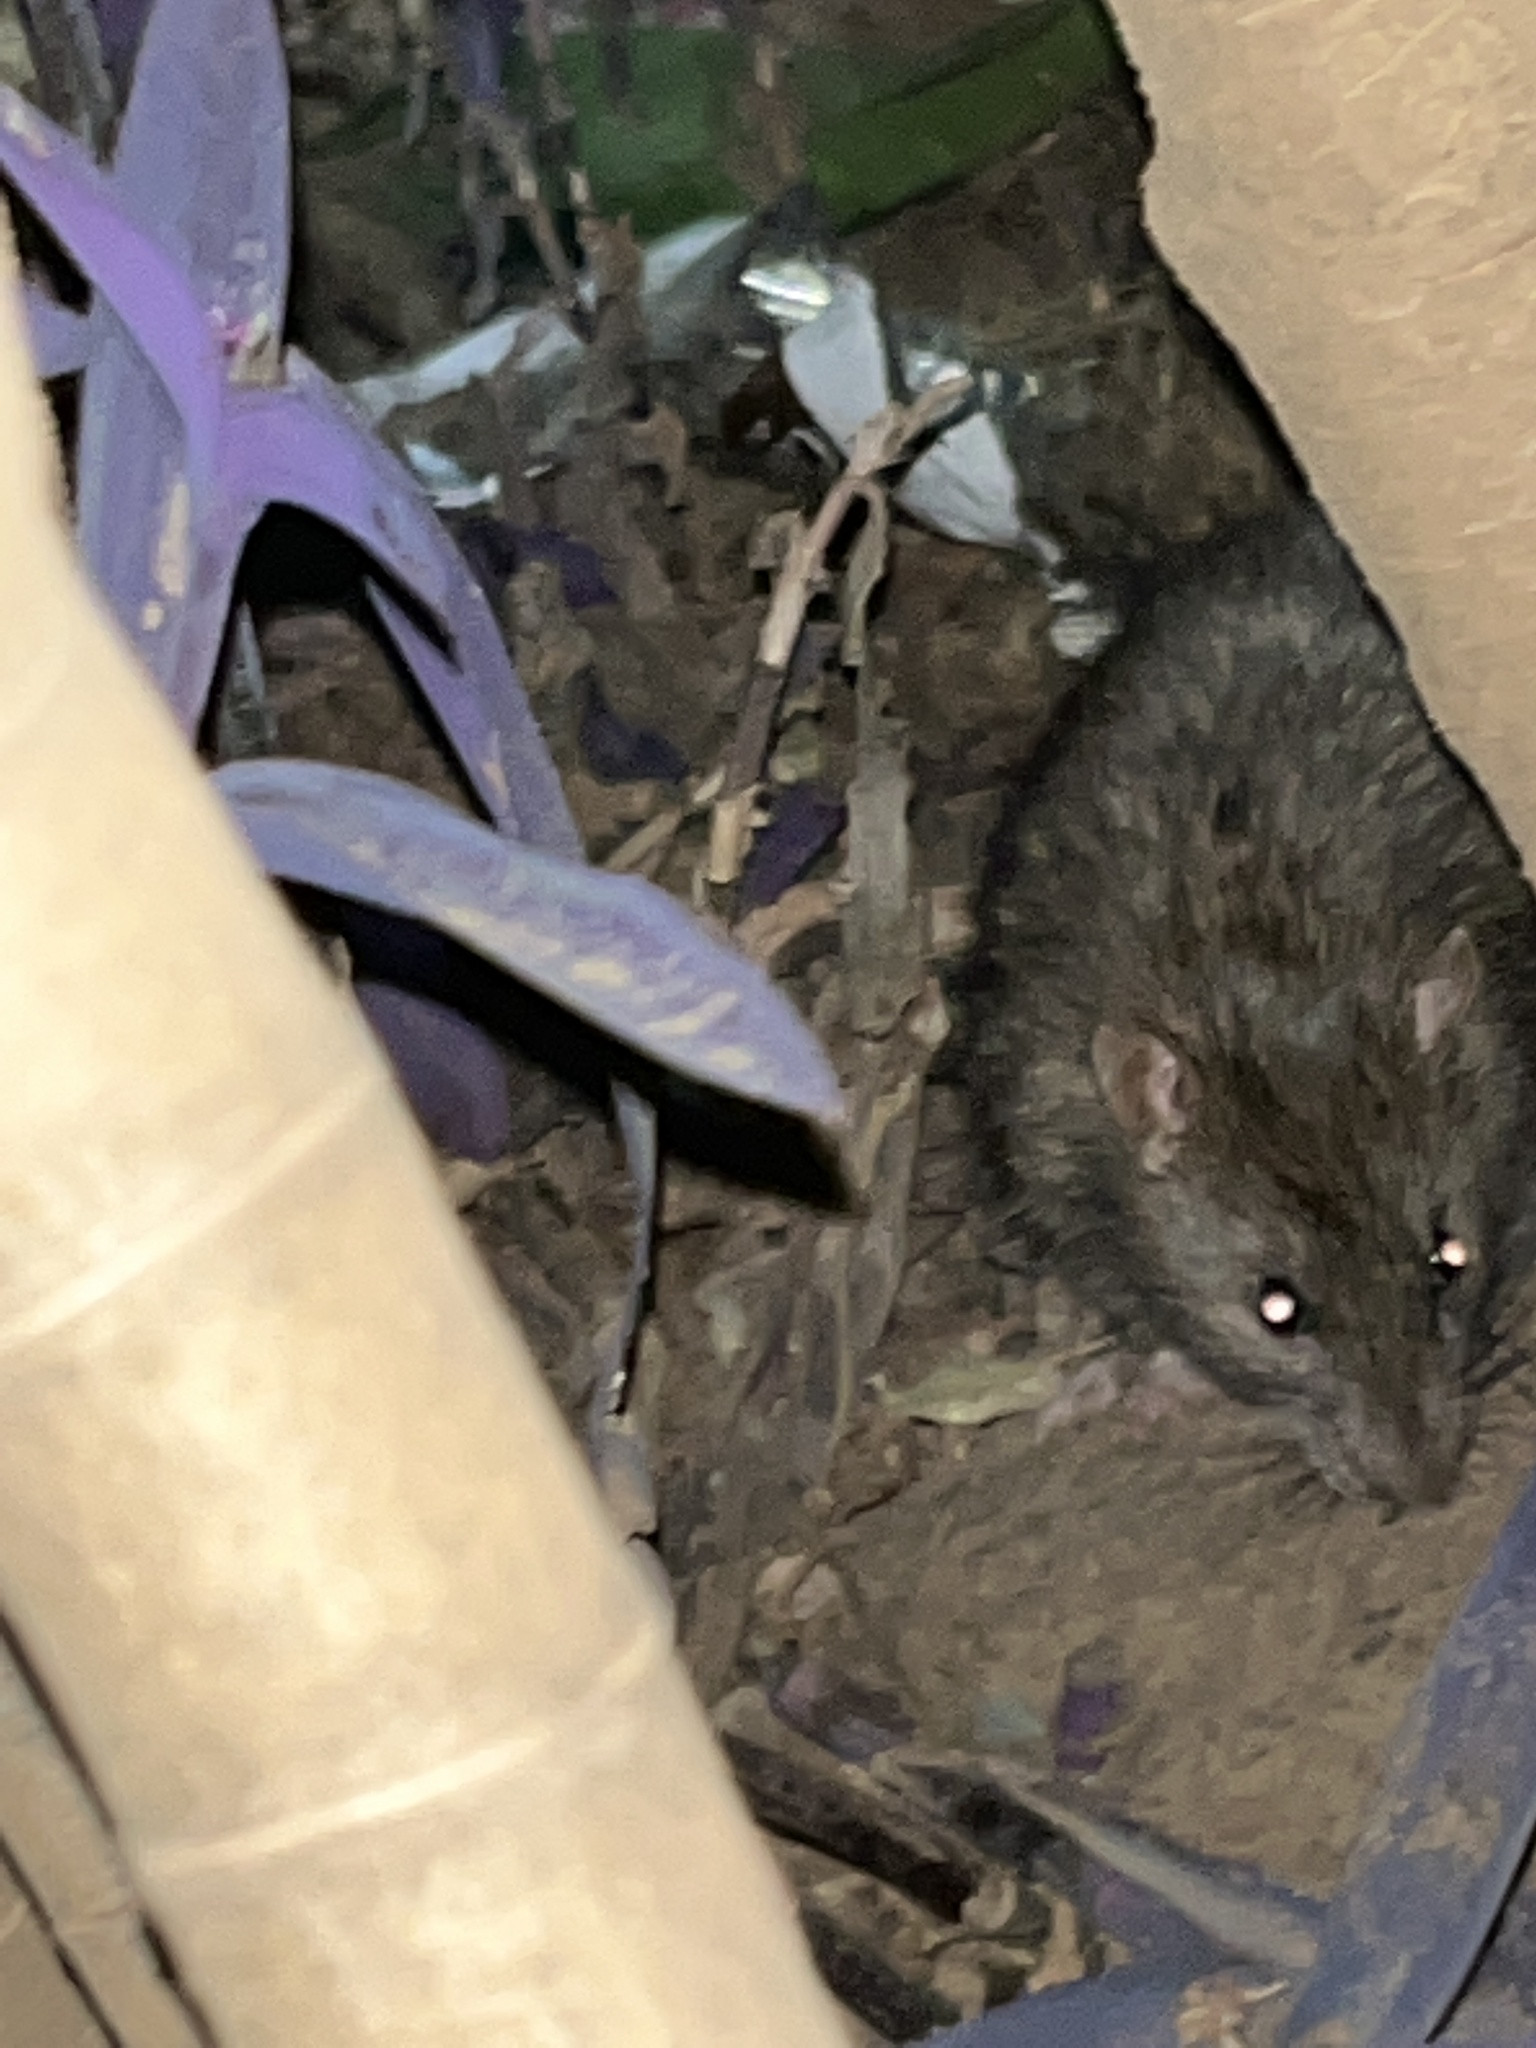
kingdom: Animalia
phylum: Chordata
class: Mammalia
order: Rodentia
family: Muridae
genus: Rattus
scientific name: Rattus
